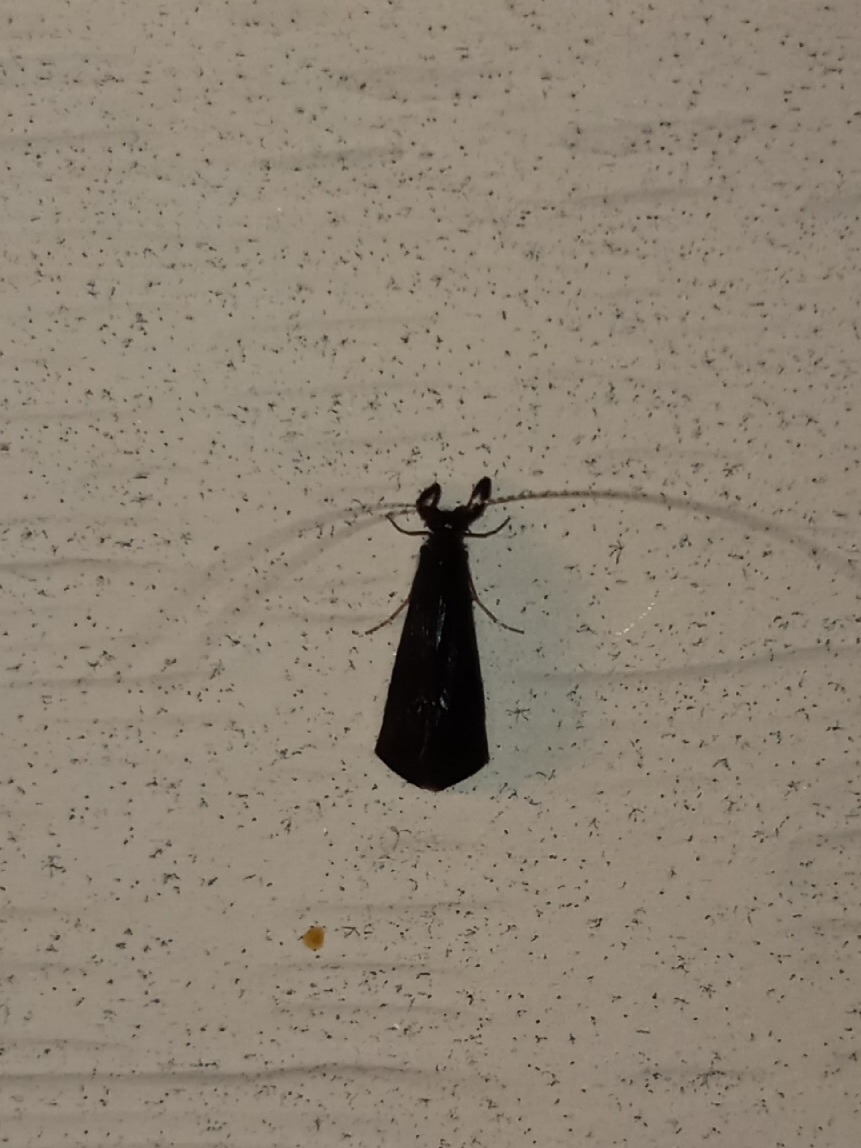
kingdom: Animalia
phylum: Arthropoda
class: Insecta
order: Trichoptera
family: Leptoceridae
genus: Mystacides
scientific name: Mystacides sepulchralis
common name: Black dancer caddisfly
